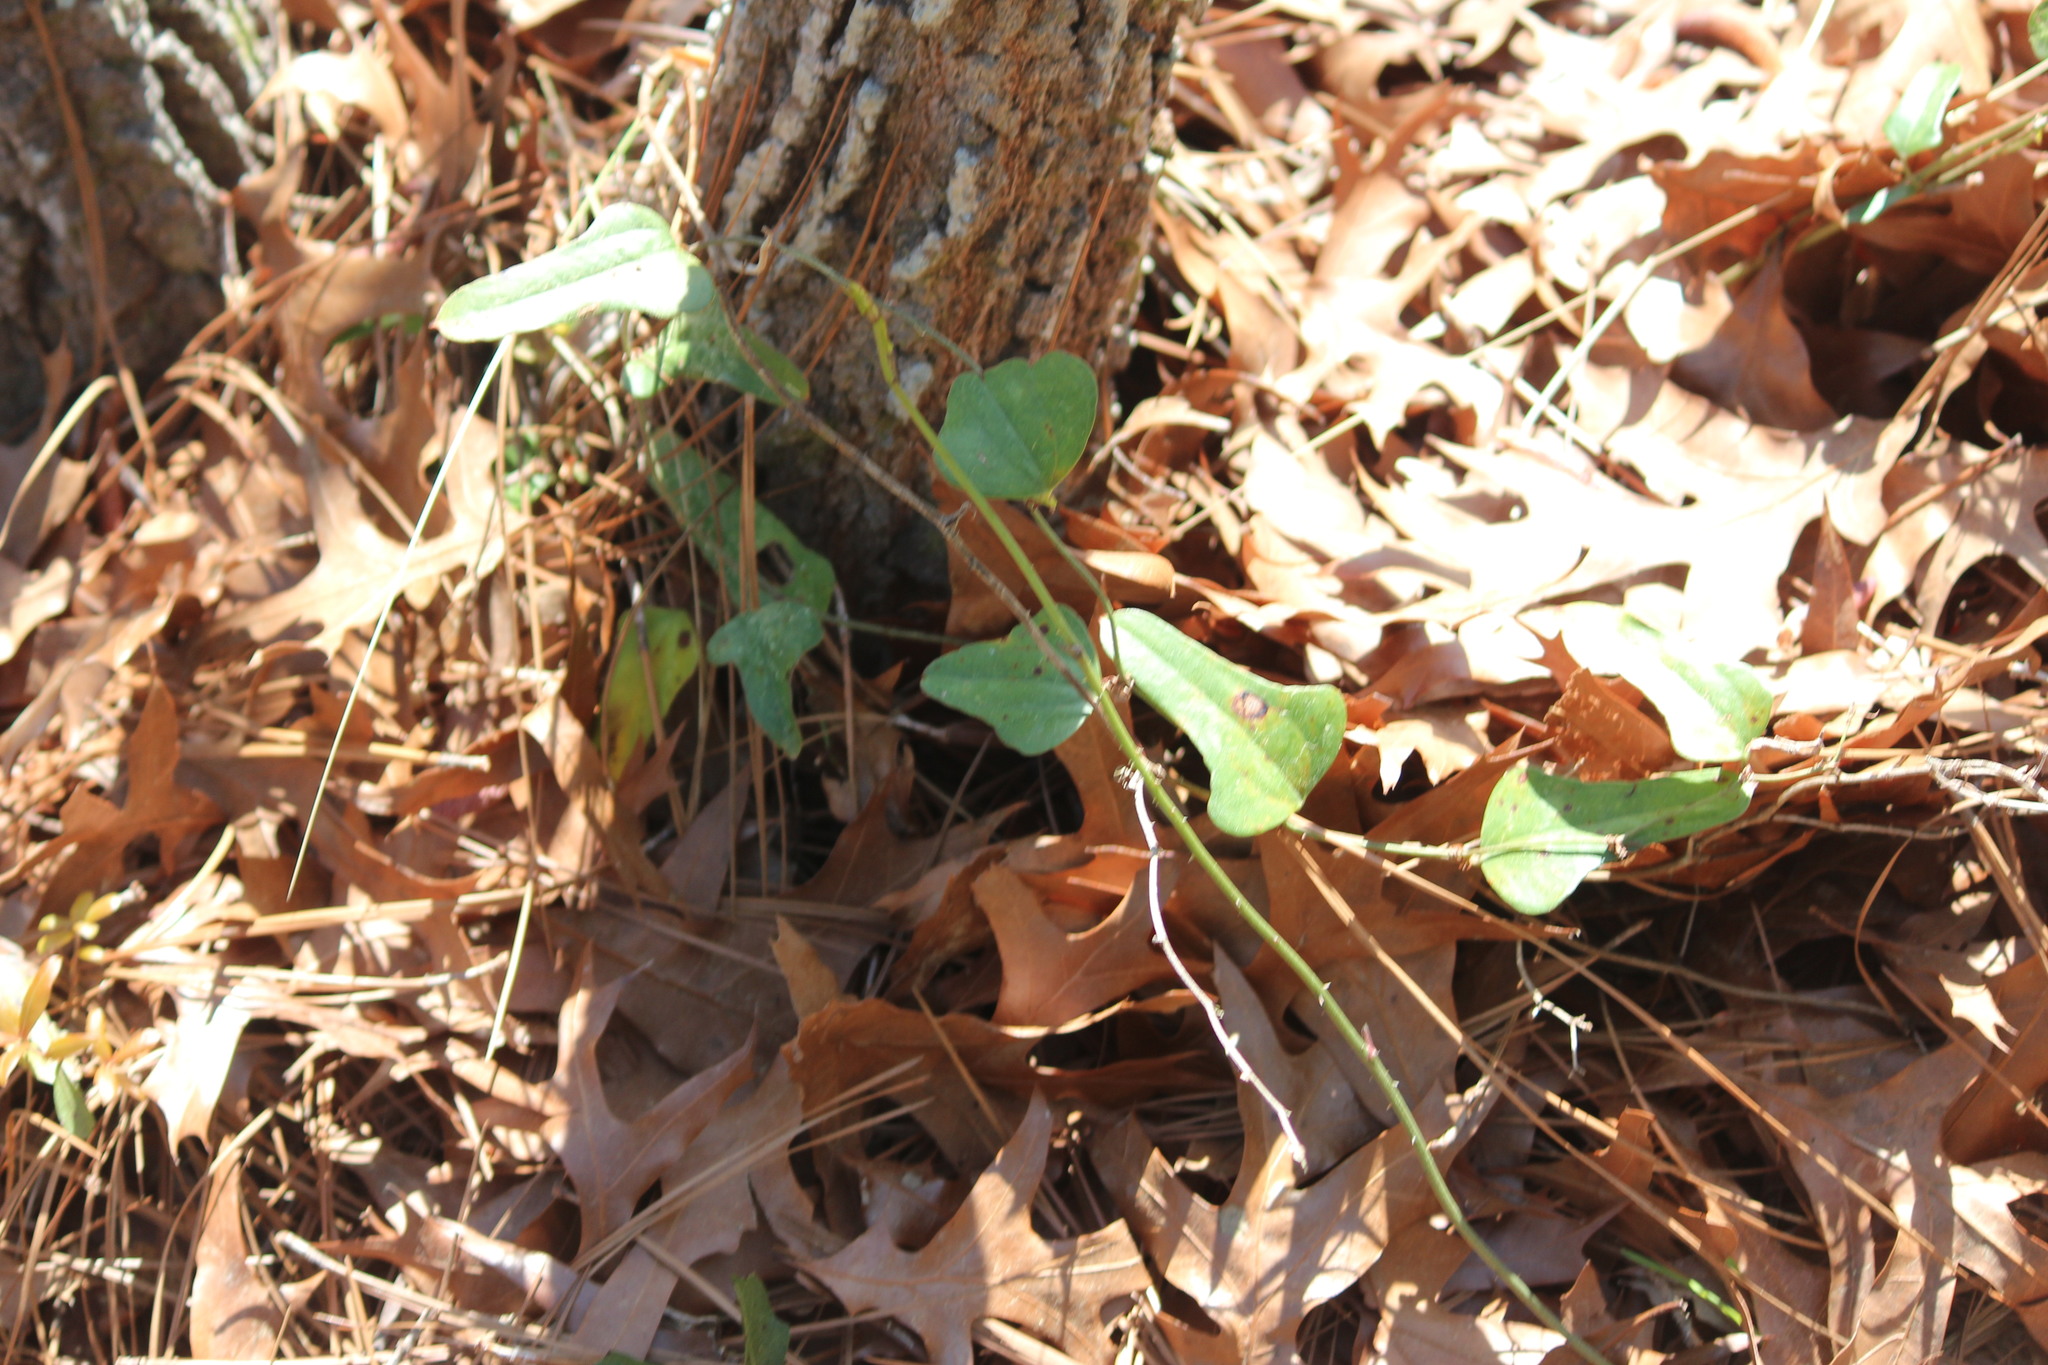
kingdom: Plantae
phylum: Tracheophyta
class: Liliopsida
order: Liliales
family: Smilacaceae
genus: Smilax
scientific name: Smilax auriculata
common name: Wild bamboo
